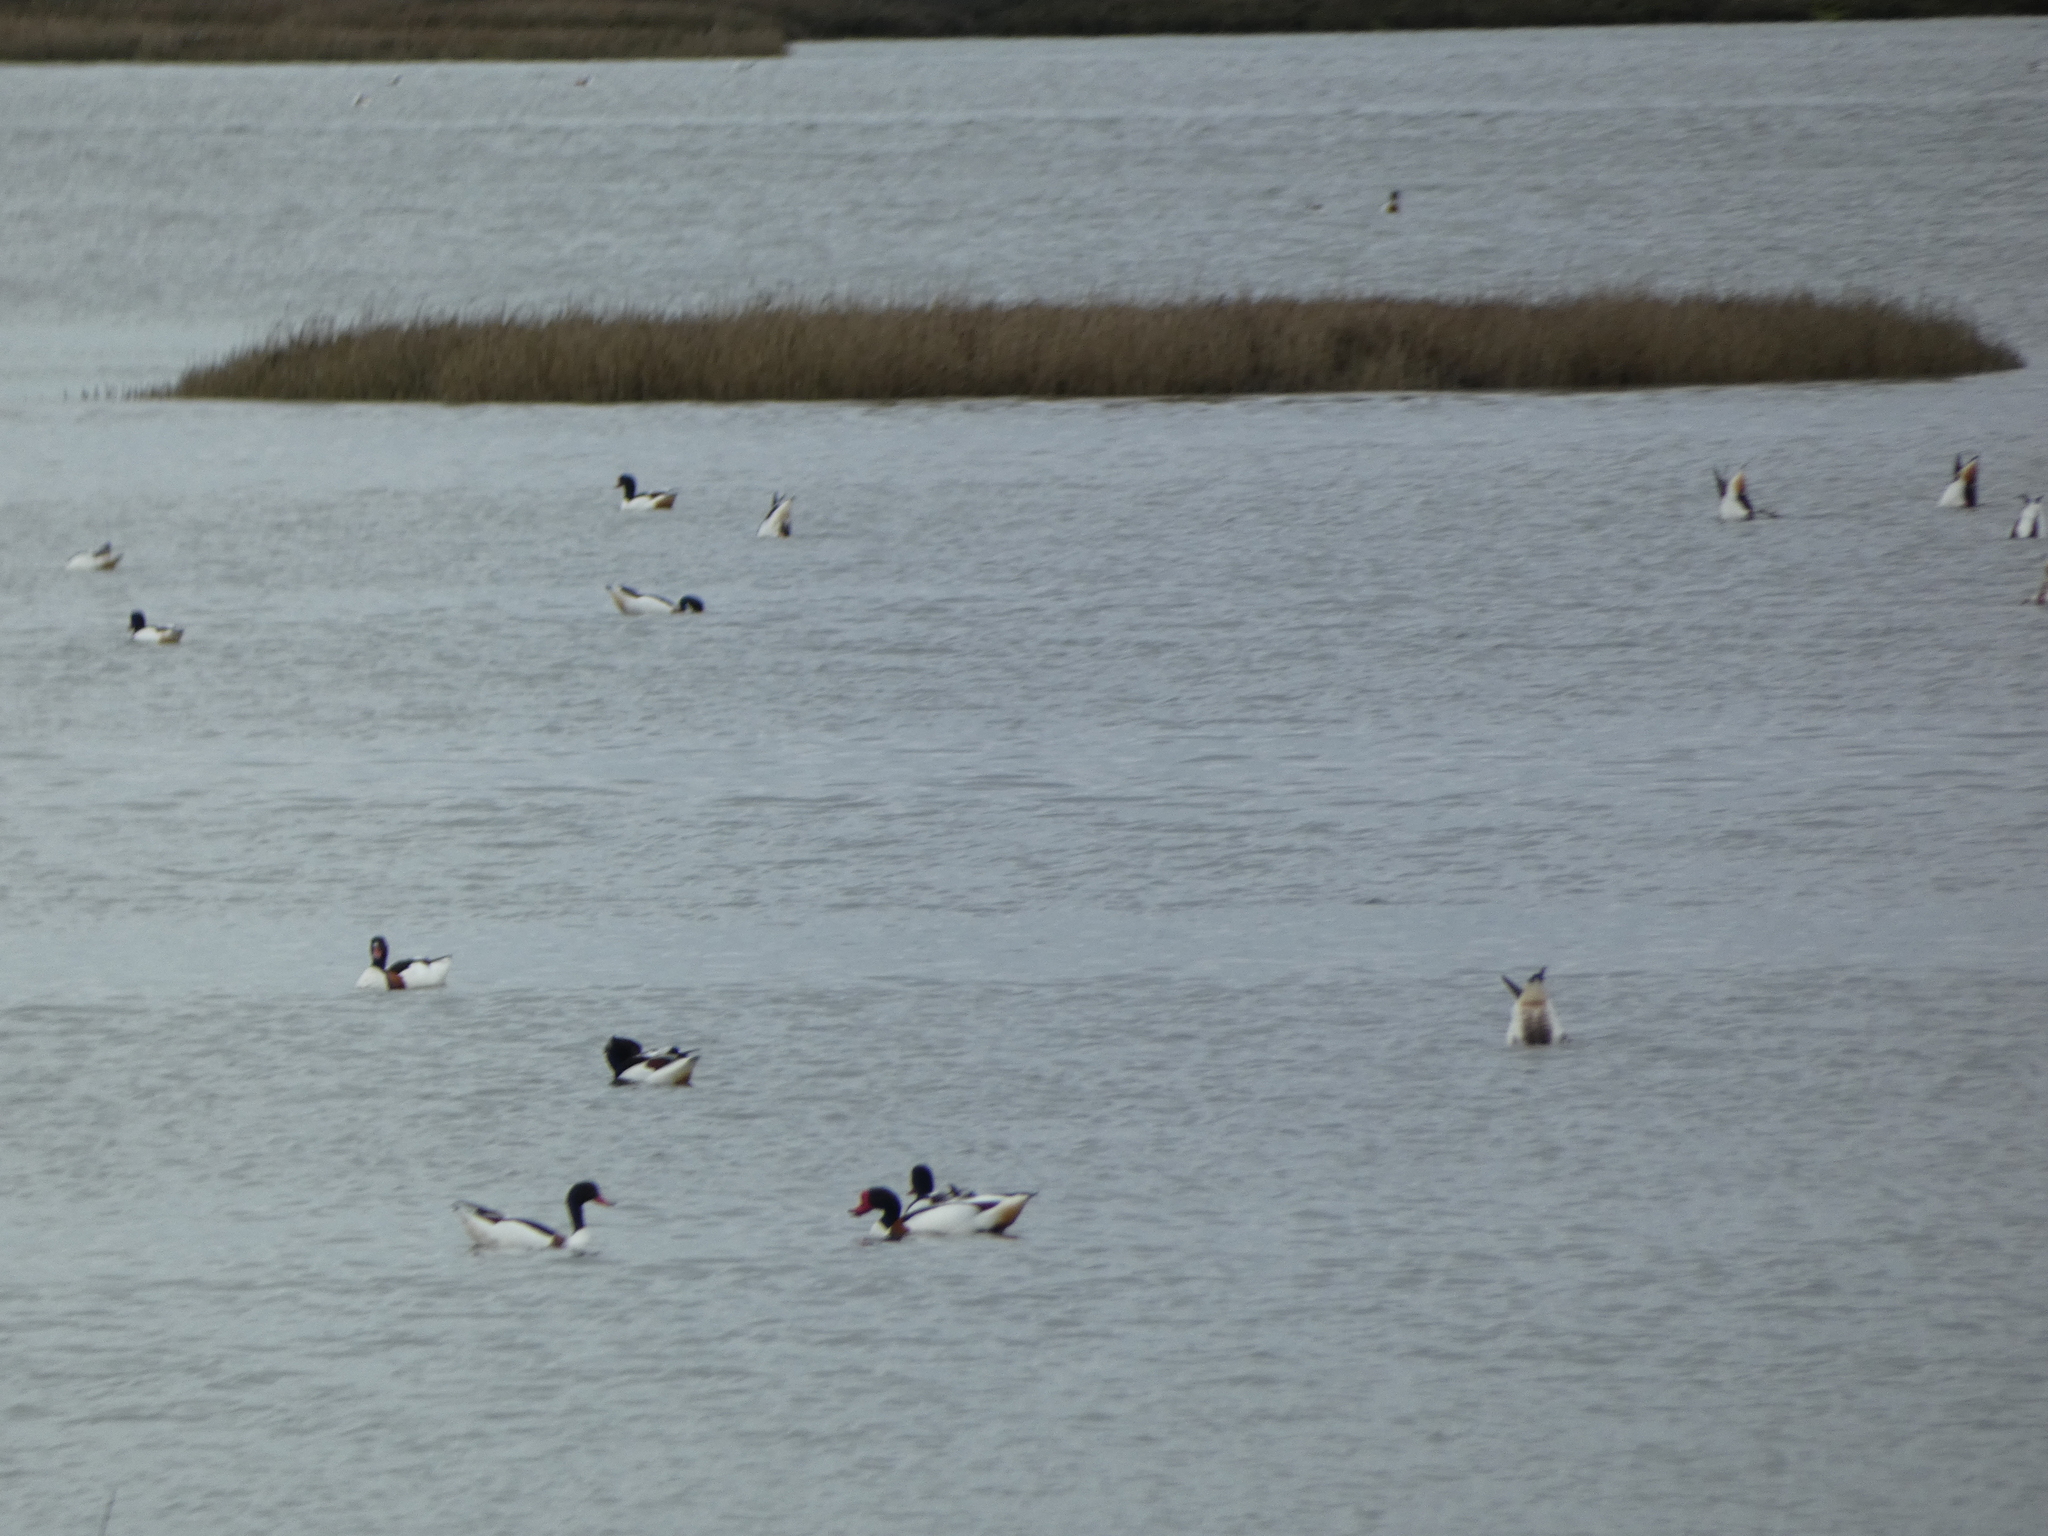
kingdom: Animalia
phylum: Chordata
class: Aves
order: Anseriformes
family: Anatidae
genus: Tadorna
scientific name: Tadorna tadorna
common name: Common shelduck
